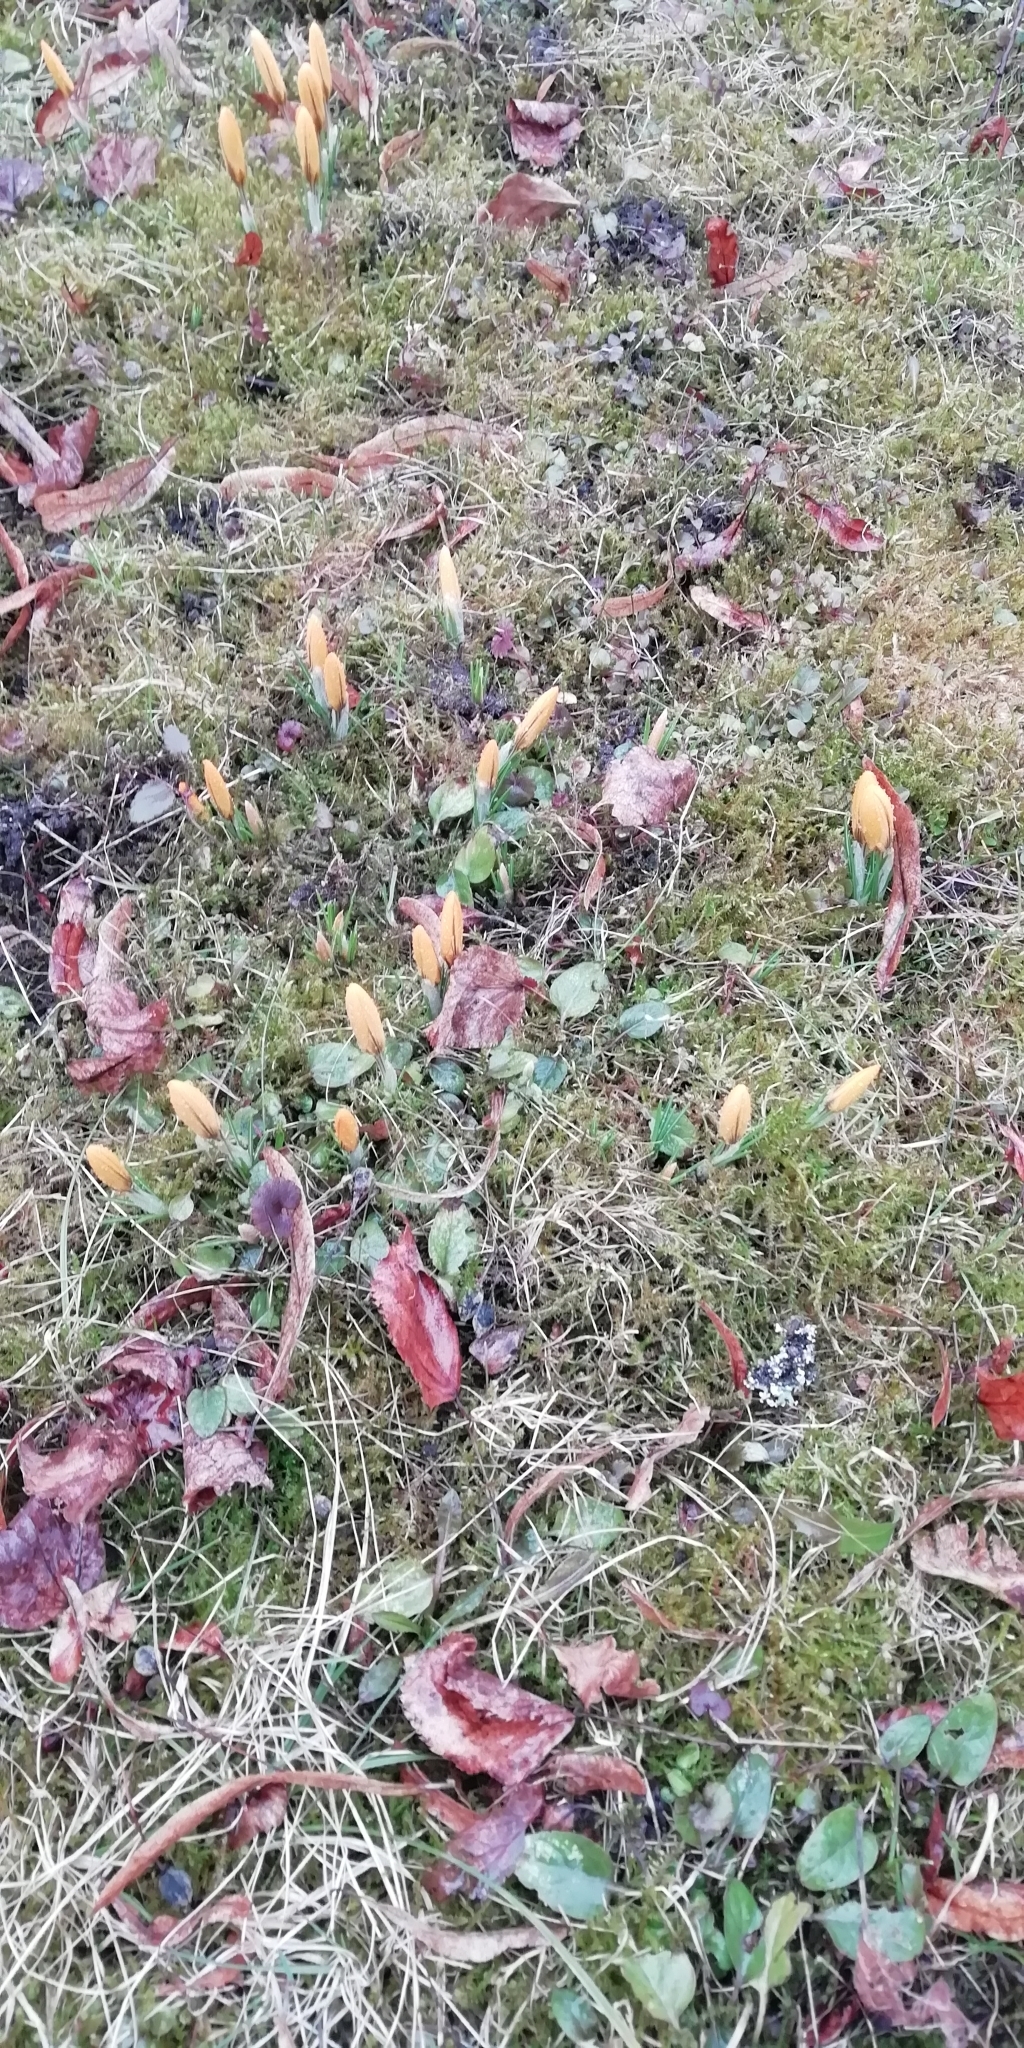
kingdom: Plantae
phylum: Tracheophyta
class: Liliopsida
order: Asparagales
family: Iridaceae
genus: Crocus
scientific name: Crocus luteus
